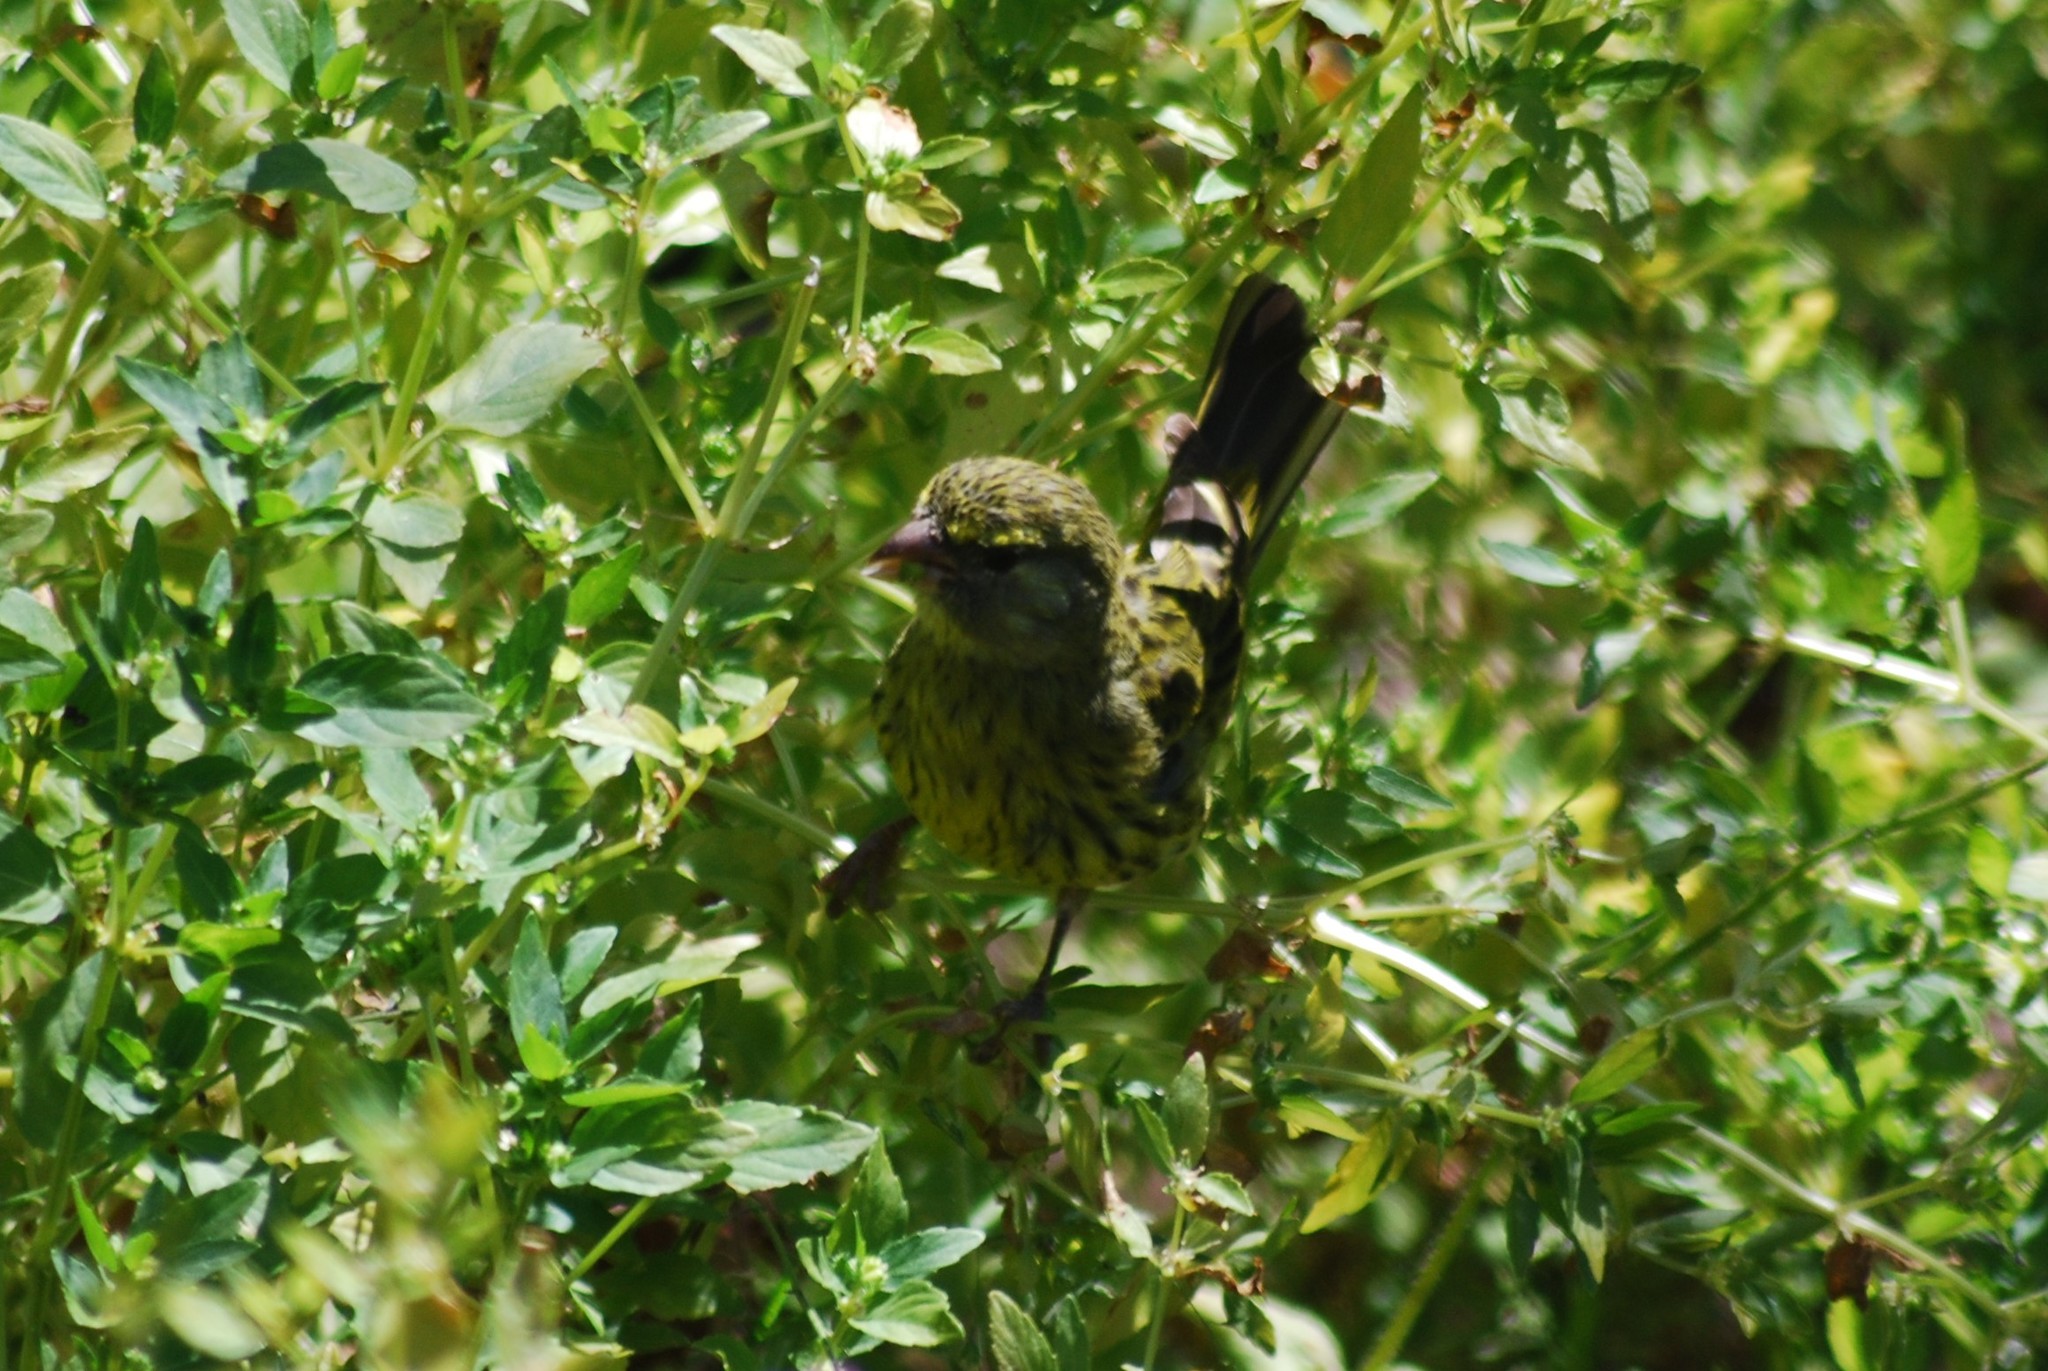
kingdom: Animalia
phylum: Chordata
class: Aves
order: Passeriformes
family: Fringillidae
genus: Crithagra
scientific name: Crithagra scotops
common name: Forest canary
